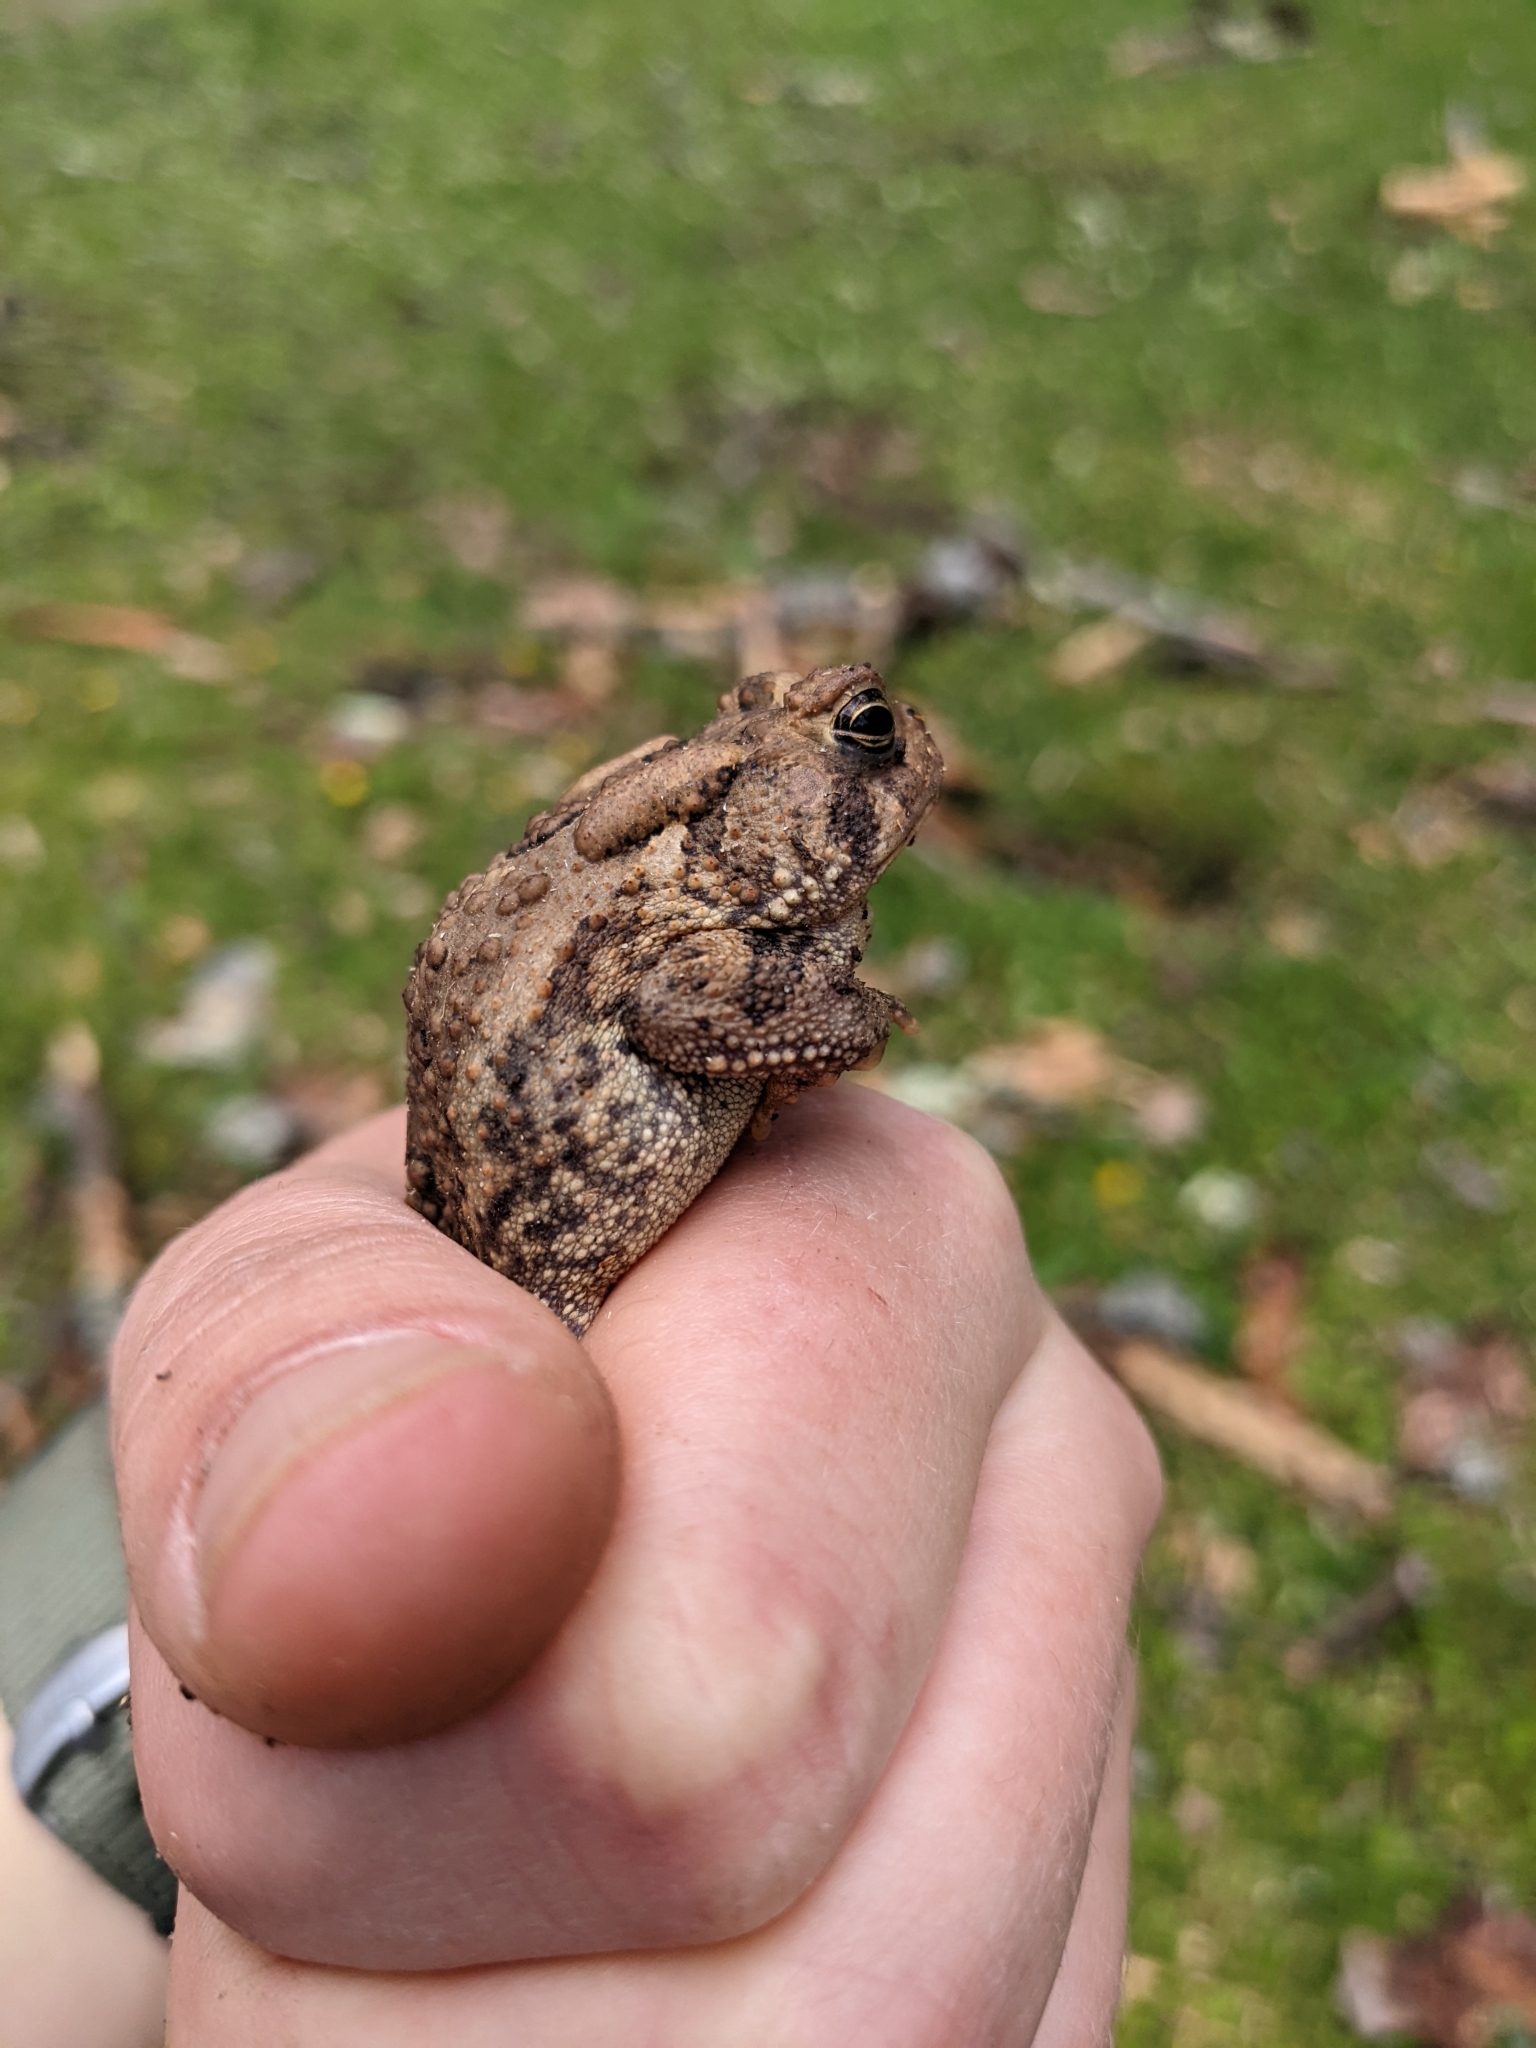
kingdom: Animalia
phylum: Chordata
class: Amphibia
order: Anura
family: Bufonidae
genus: Anaxyrus
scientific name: Anaxyrus americanus
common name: American toad
